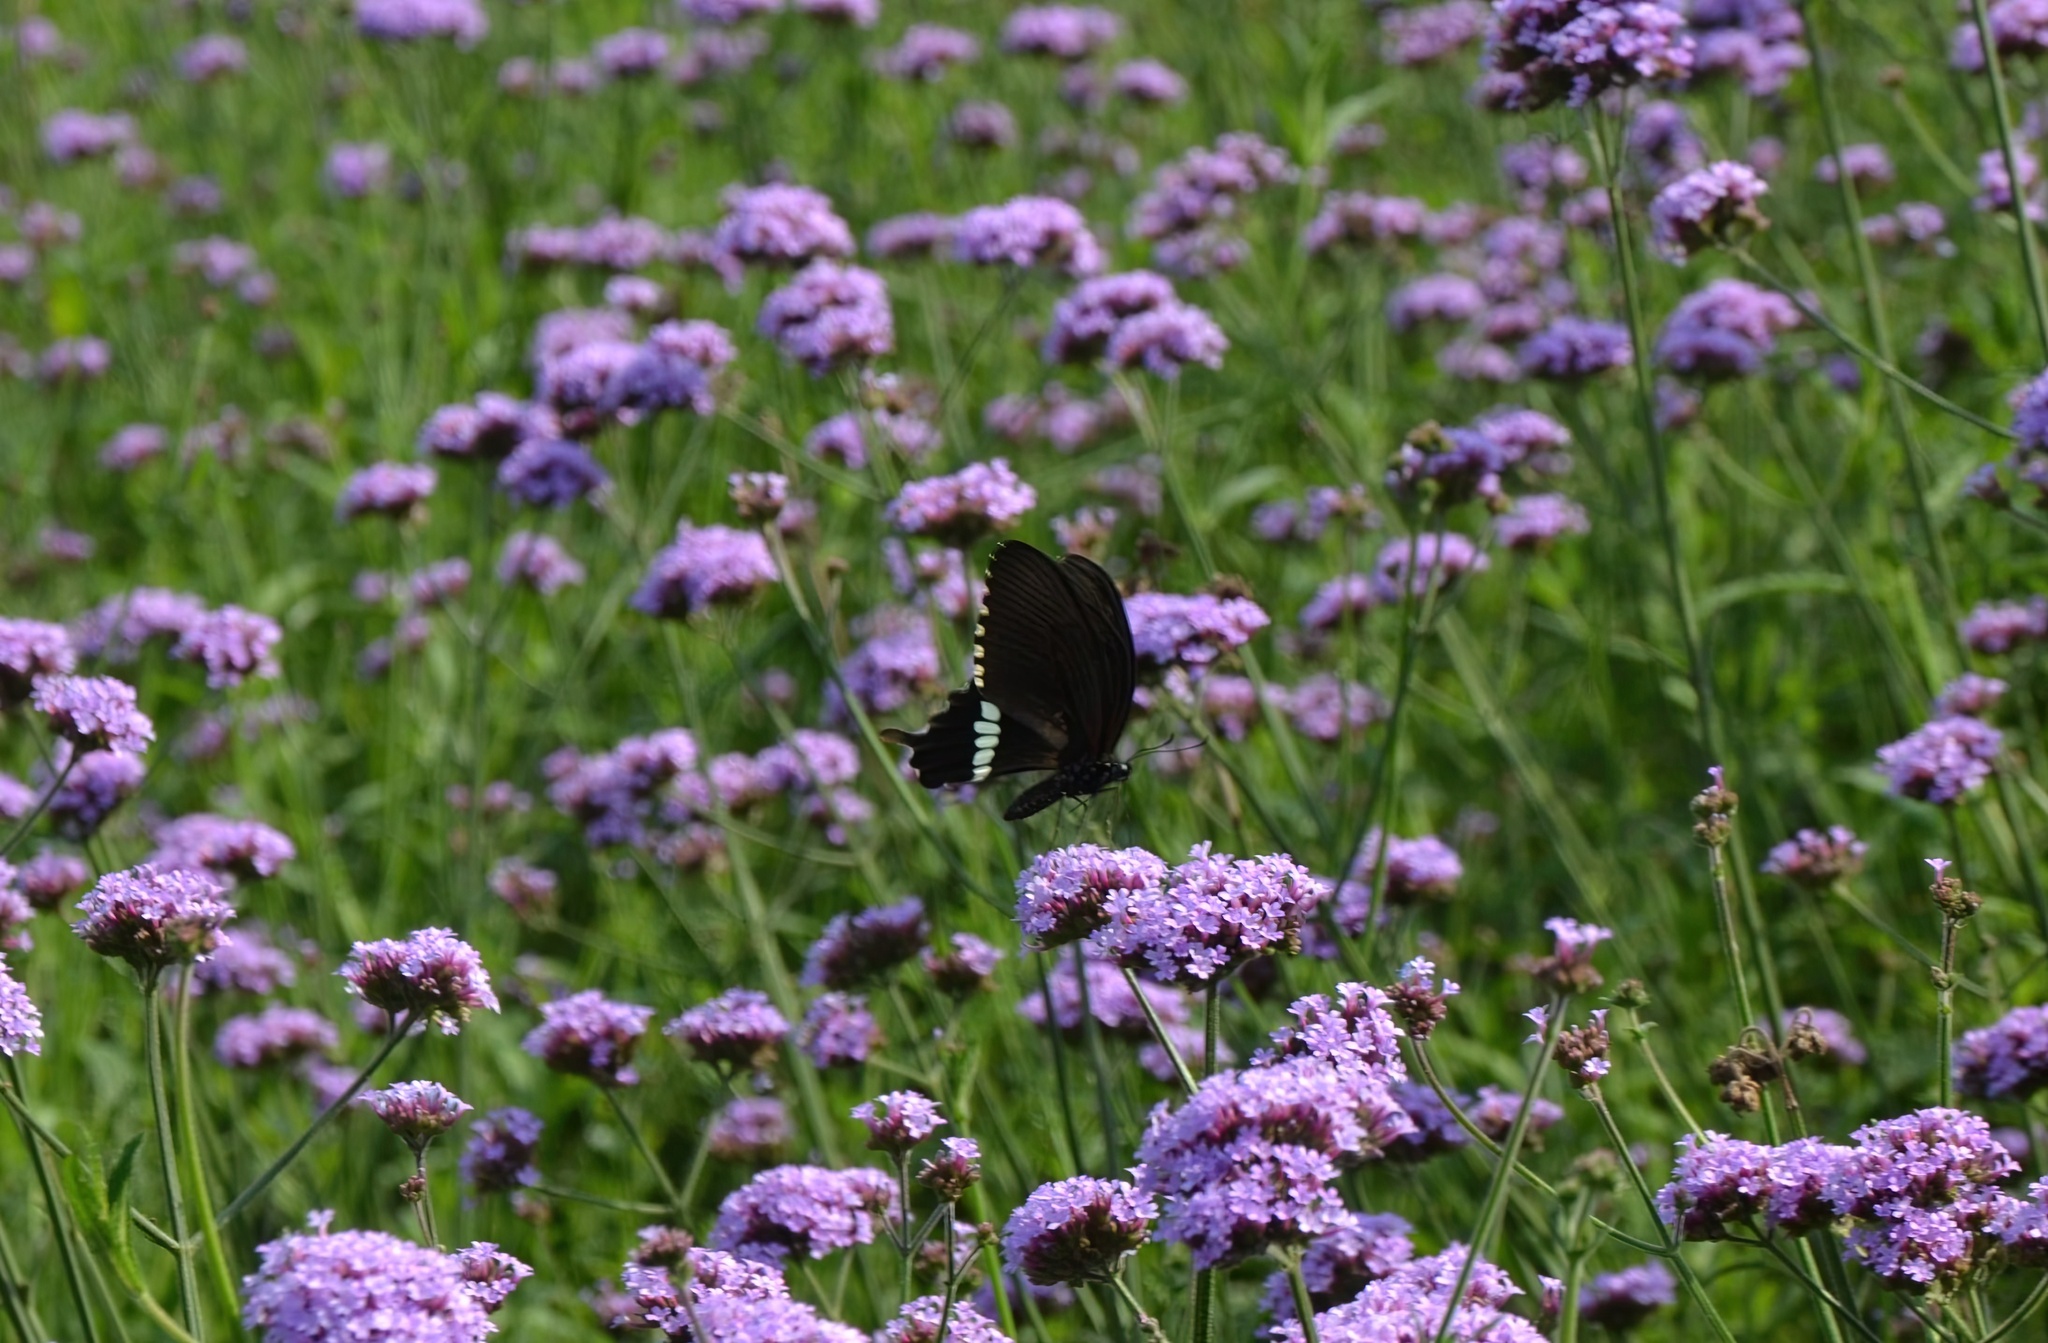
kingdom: Animalia
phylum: Arthropoda
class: Insecta
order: Lepidoptera
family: Papilionidae
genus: Papilio
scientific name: Papilio polytes
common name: Common mormon
